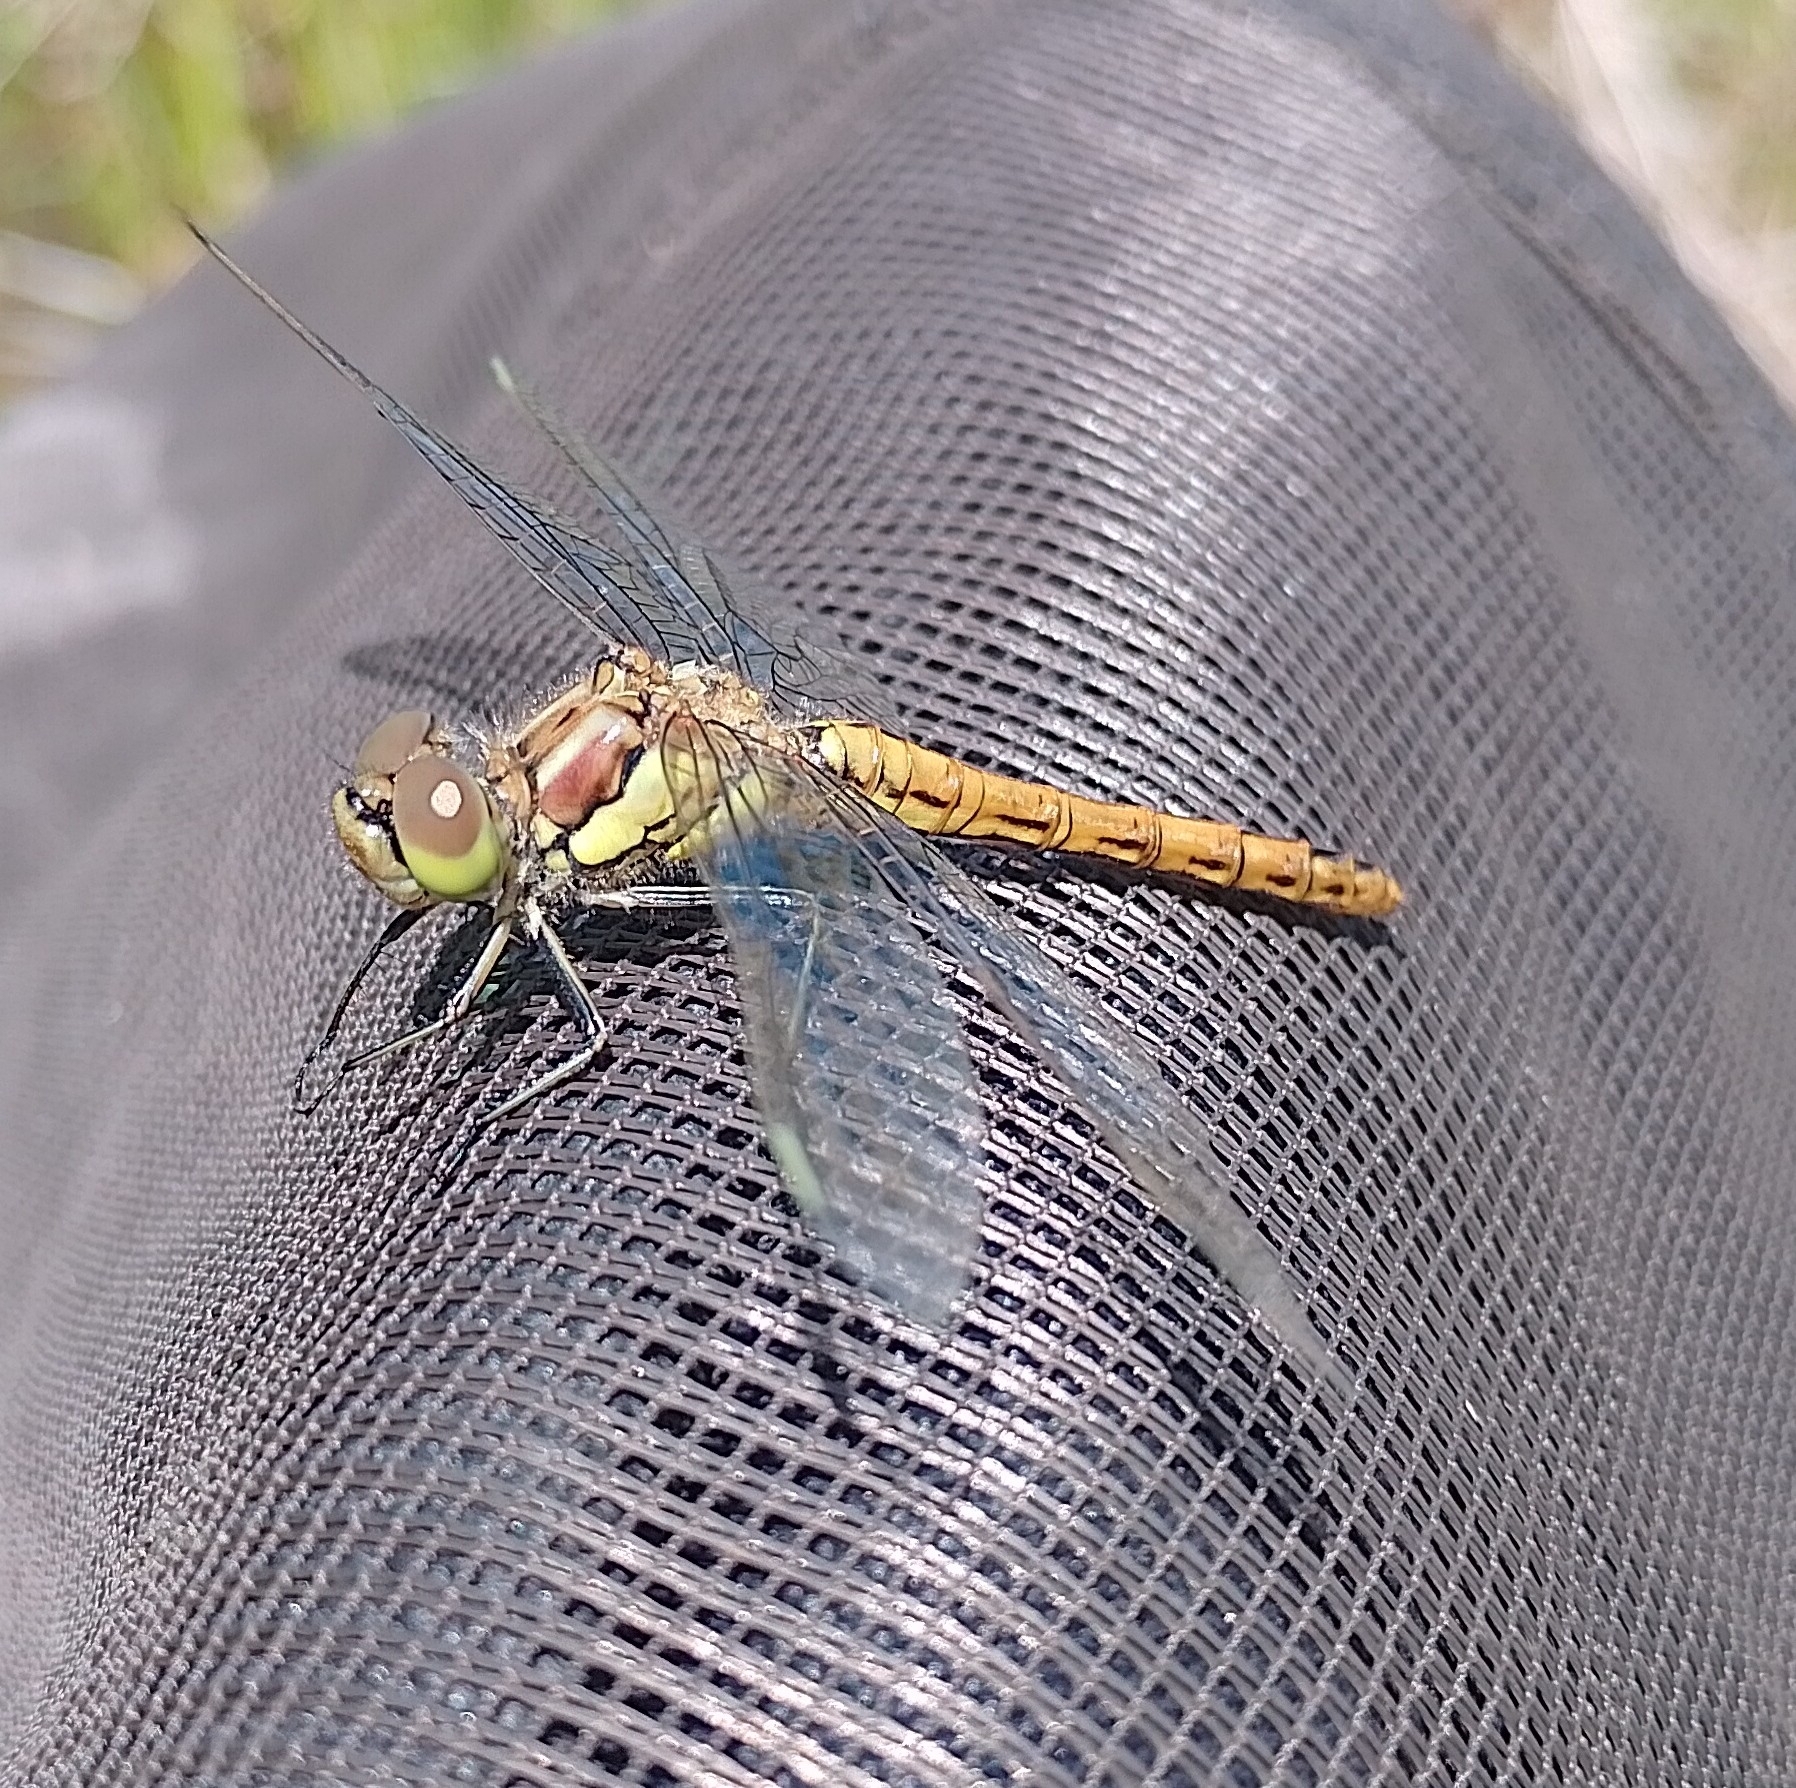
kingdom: Animalia
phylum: Arthropoda
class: Insecta
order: Odonata
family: Libellulidae
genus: Sympetrum
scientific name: Sympetrum vulgatum
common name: Vagrant darter
